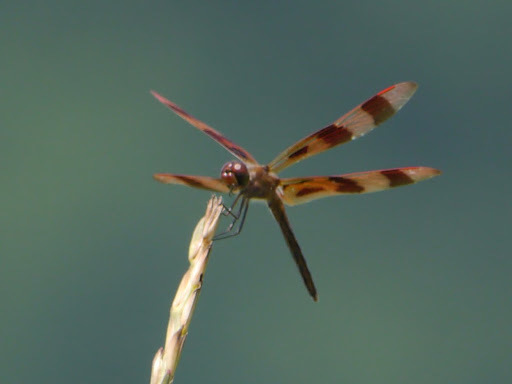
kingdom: Animalia
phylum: Arthropoda
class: Insecta
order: Odonata
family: Libellulidae
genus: Celithemis
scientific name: Celithemis eponina
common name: Halloween pennant
